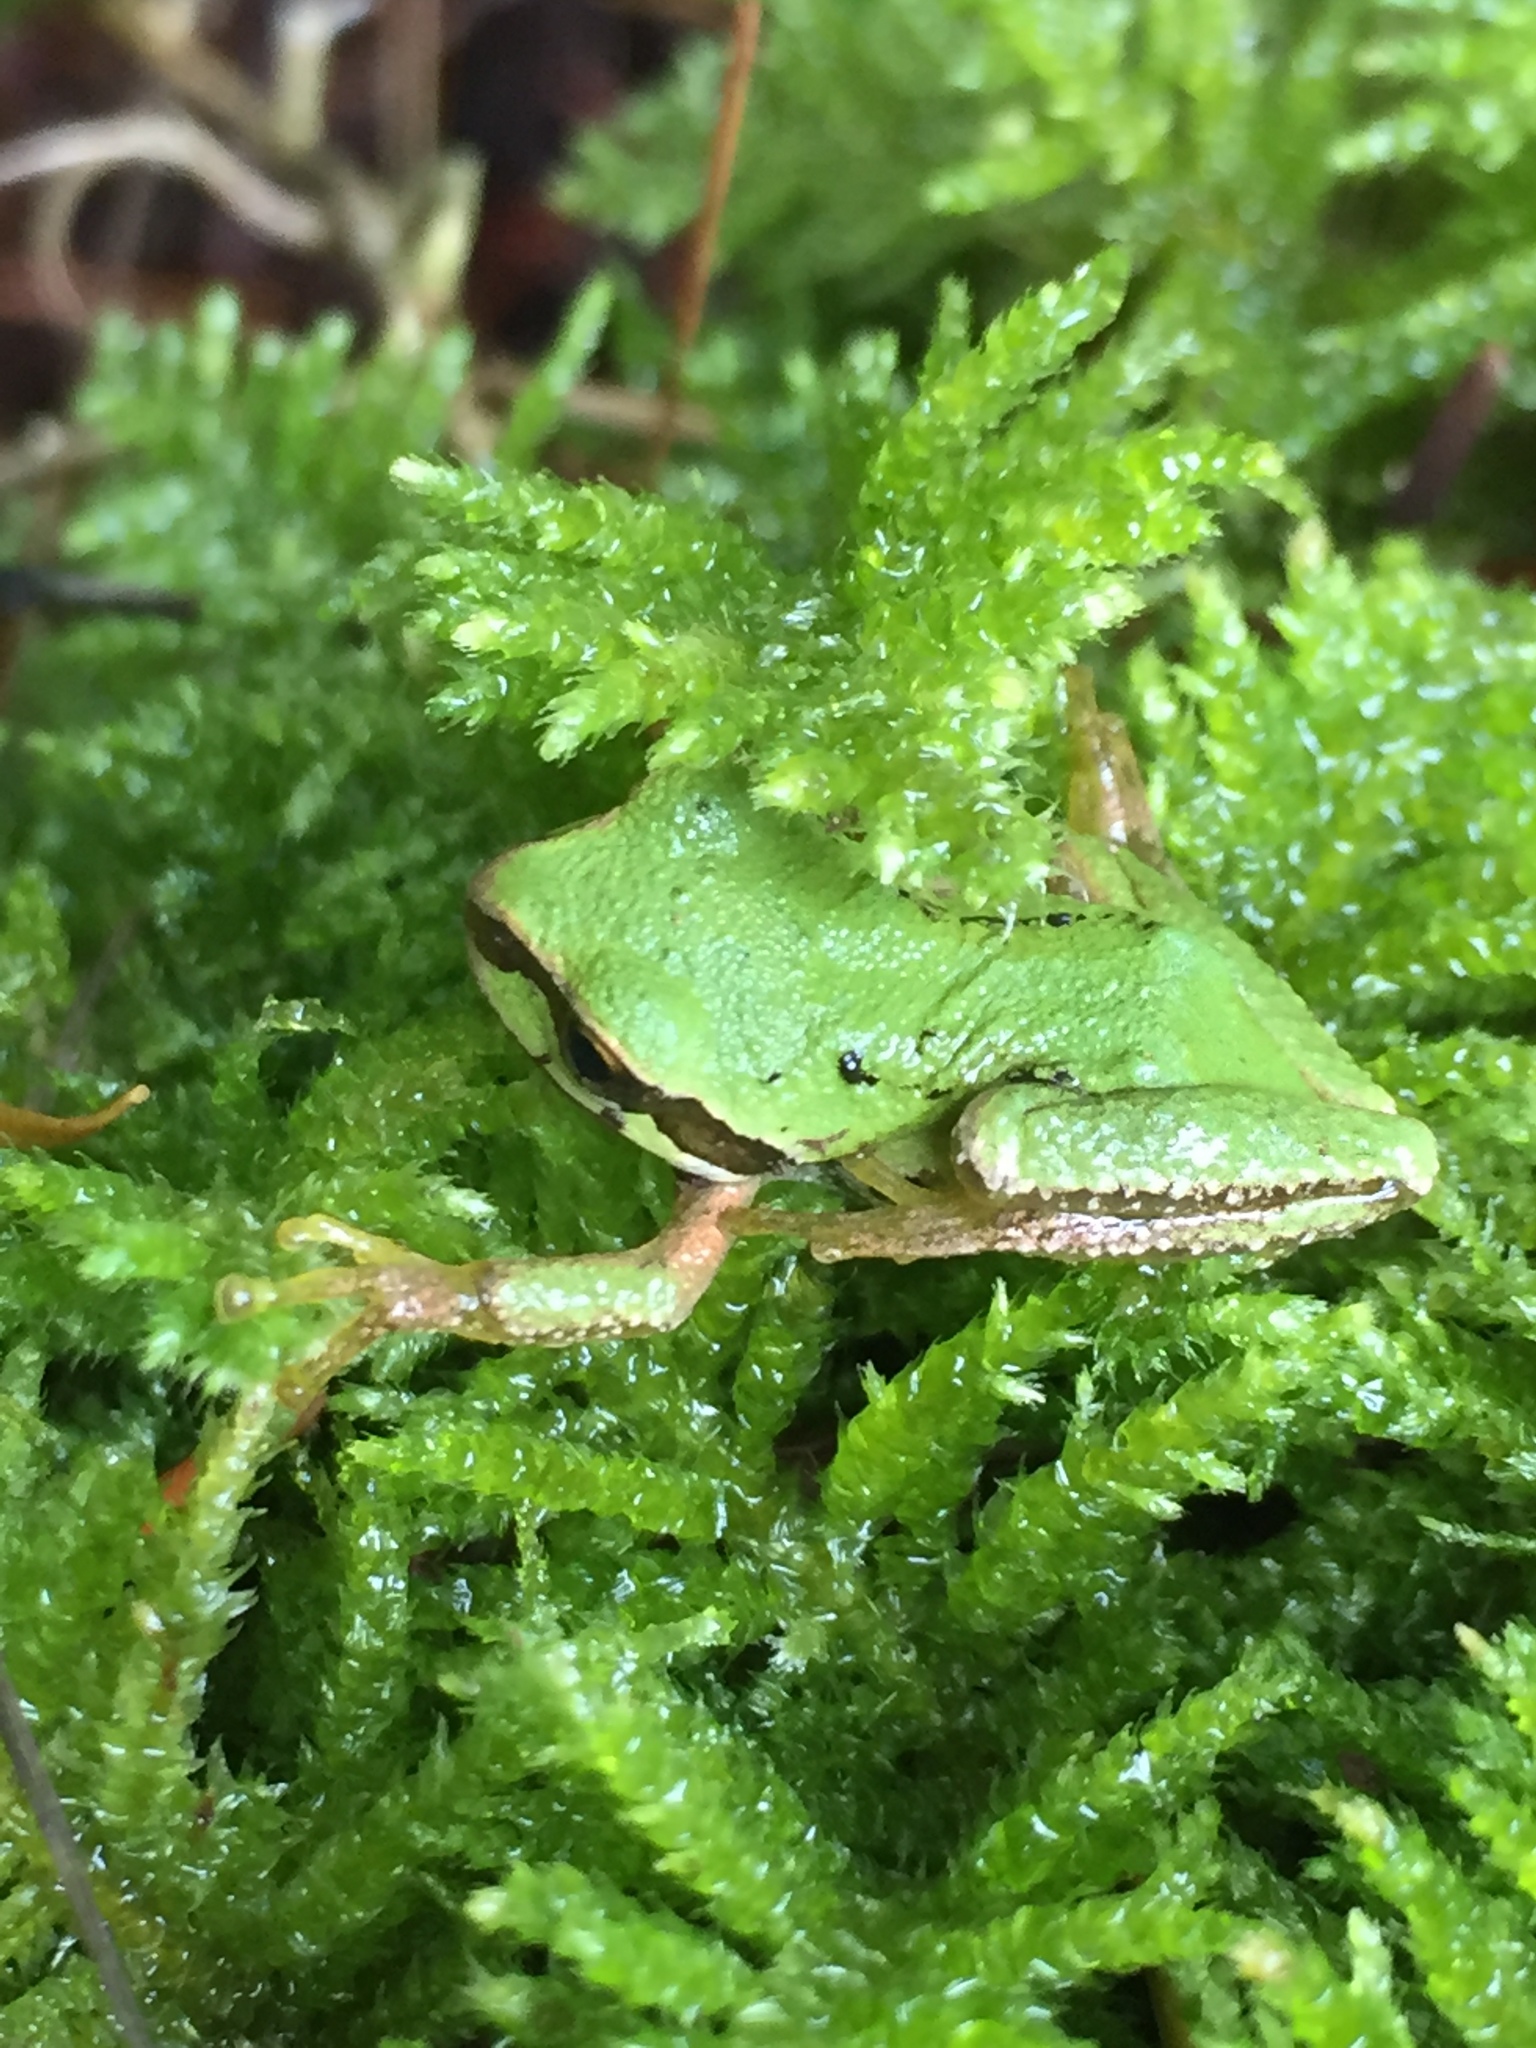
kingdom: Animalia
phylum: Chordata
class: Amphibia
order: Anura
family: Hylidae
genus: Pseudacris
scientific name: Pseudacris regilla
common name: Pacific chorus frog
